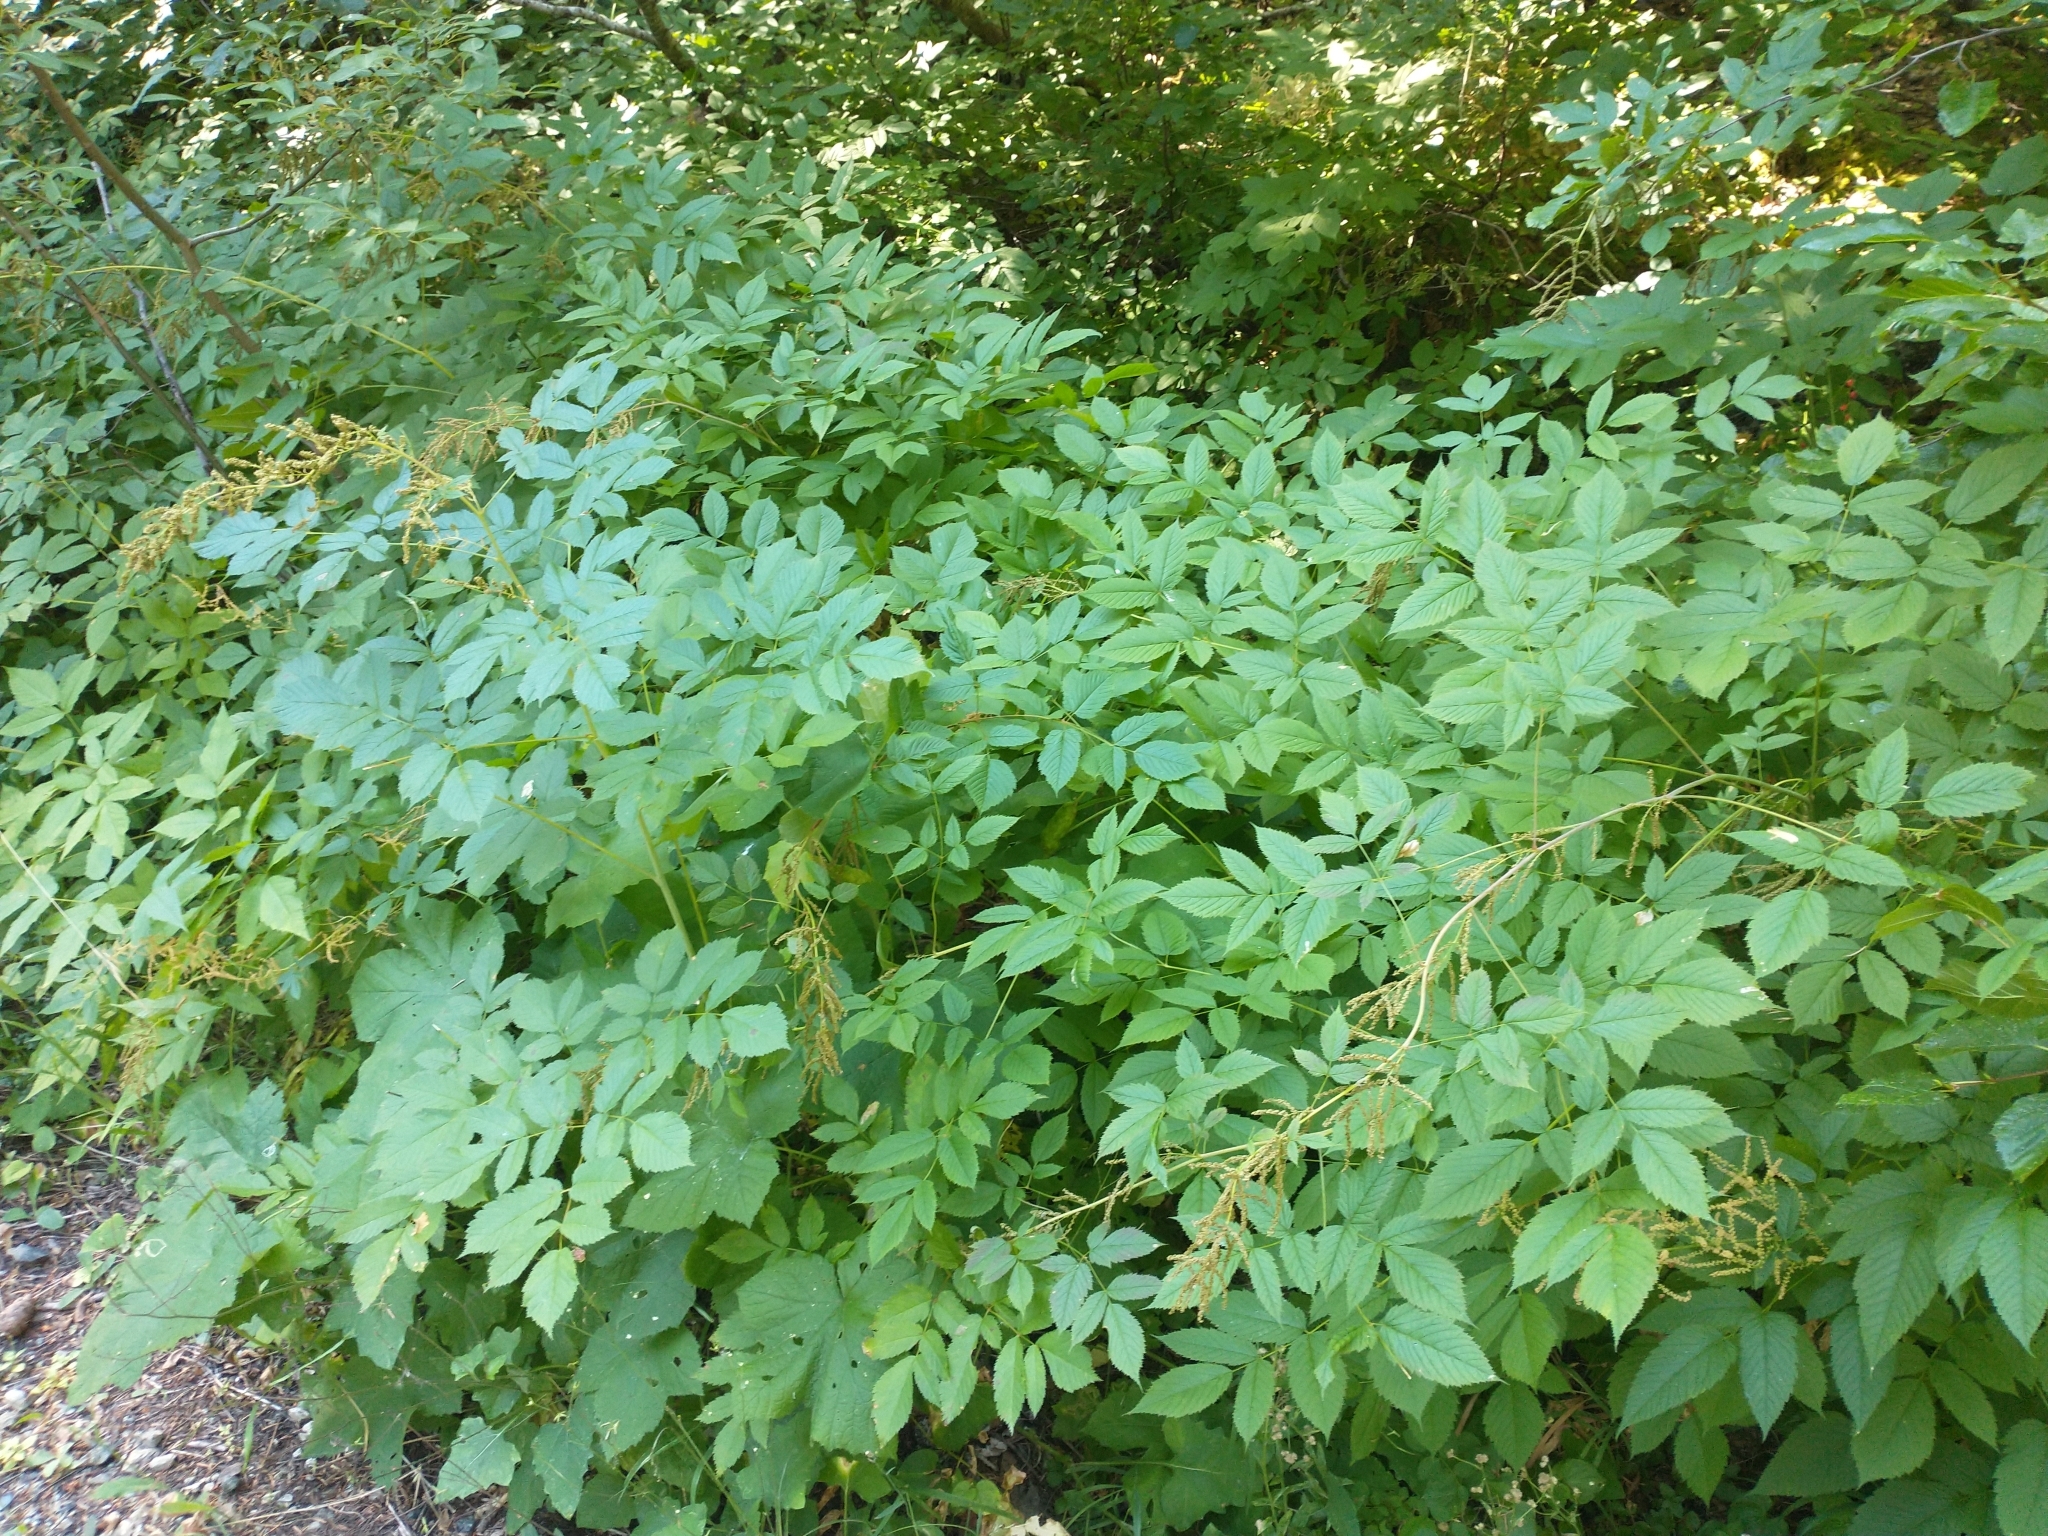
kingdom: Plantae
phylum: Tracheophyta
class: Magnoliopsida
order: Rosales
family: Rosaceae
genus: Aruncus
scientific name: Aruncus dioicus
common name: Buck's-beard
